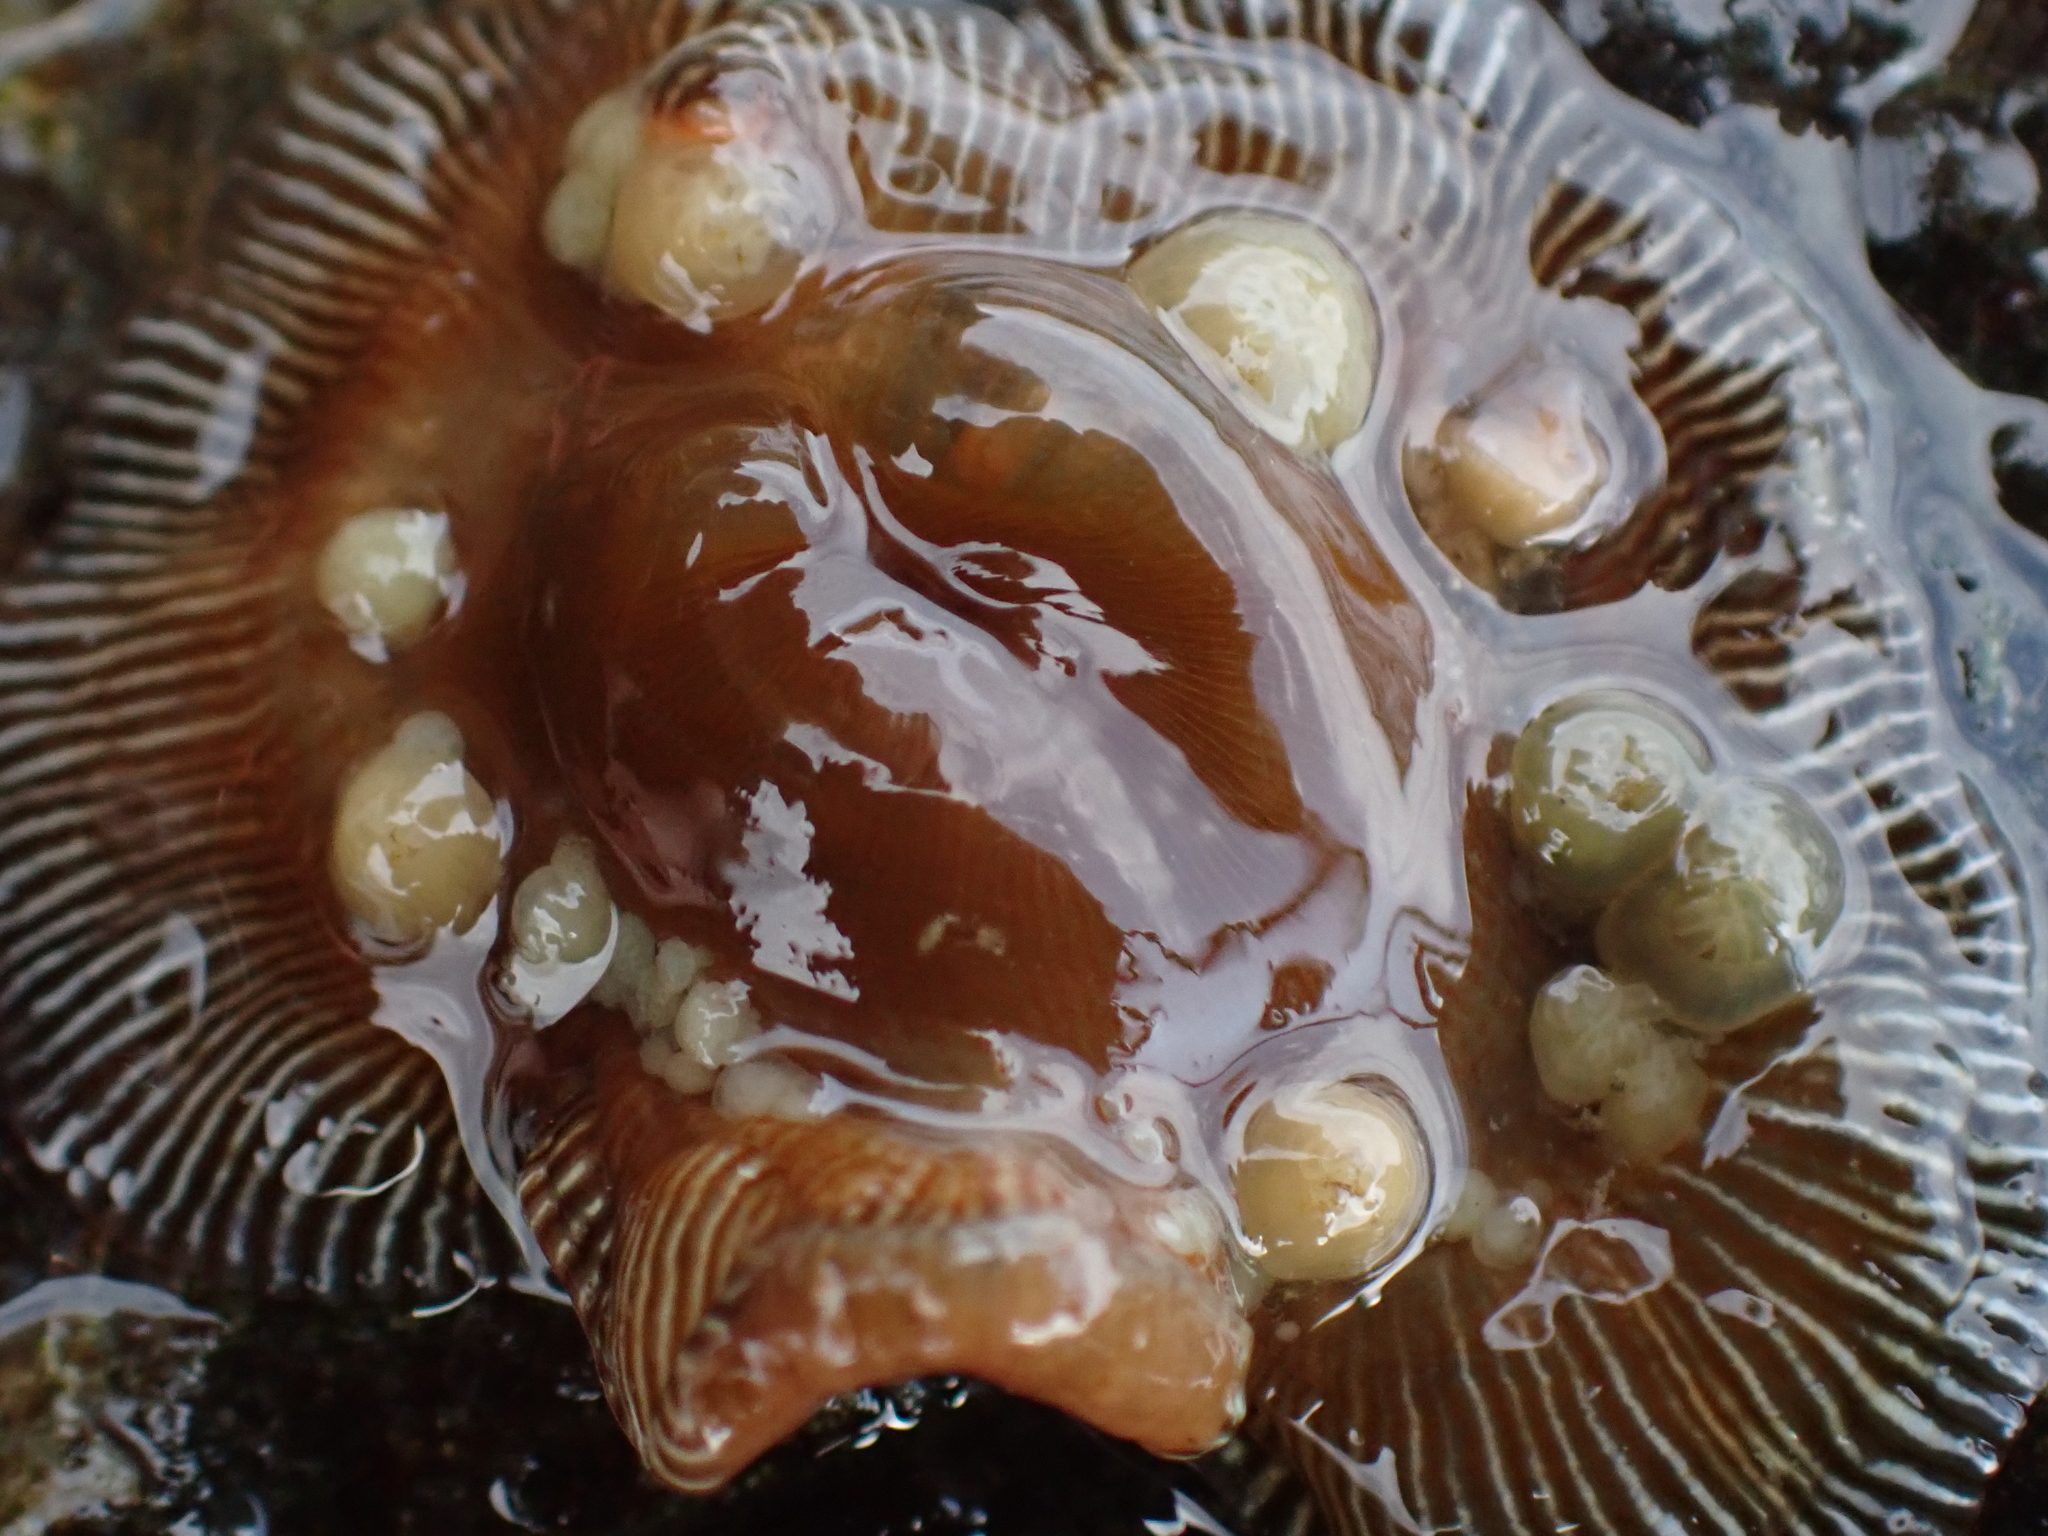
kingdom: Animalia
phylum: Cnidaria
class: Anthozoa
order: Actiniaria
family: Actiniidae
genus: Epiactis
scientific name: Epiactis prolifera
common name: Brooding anemone
